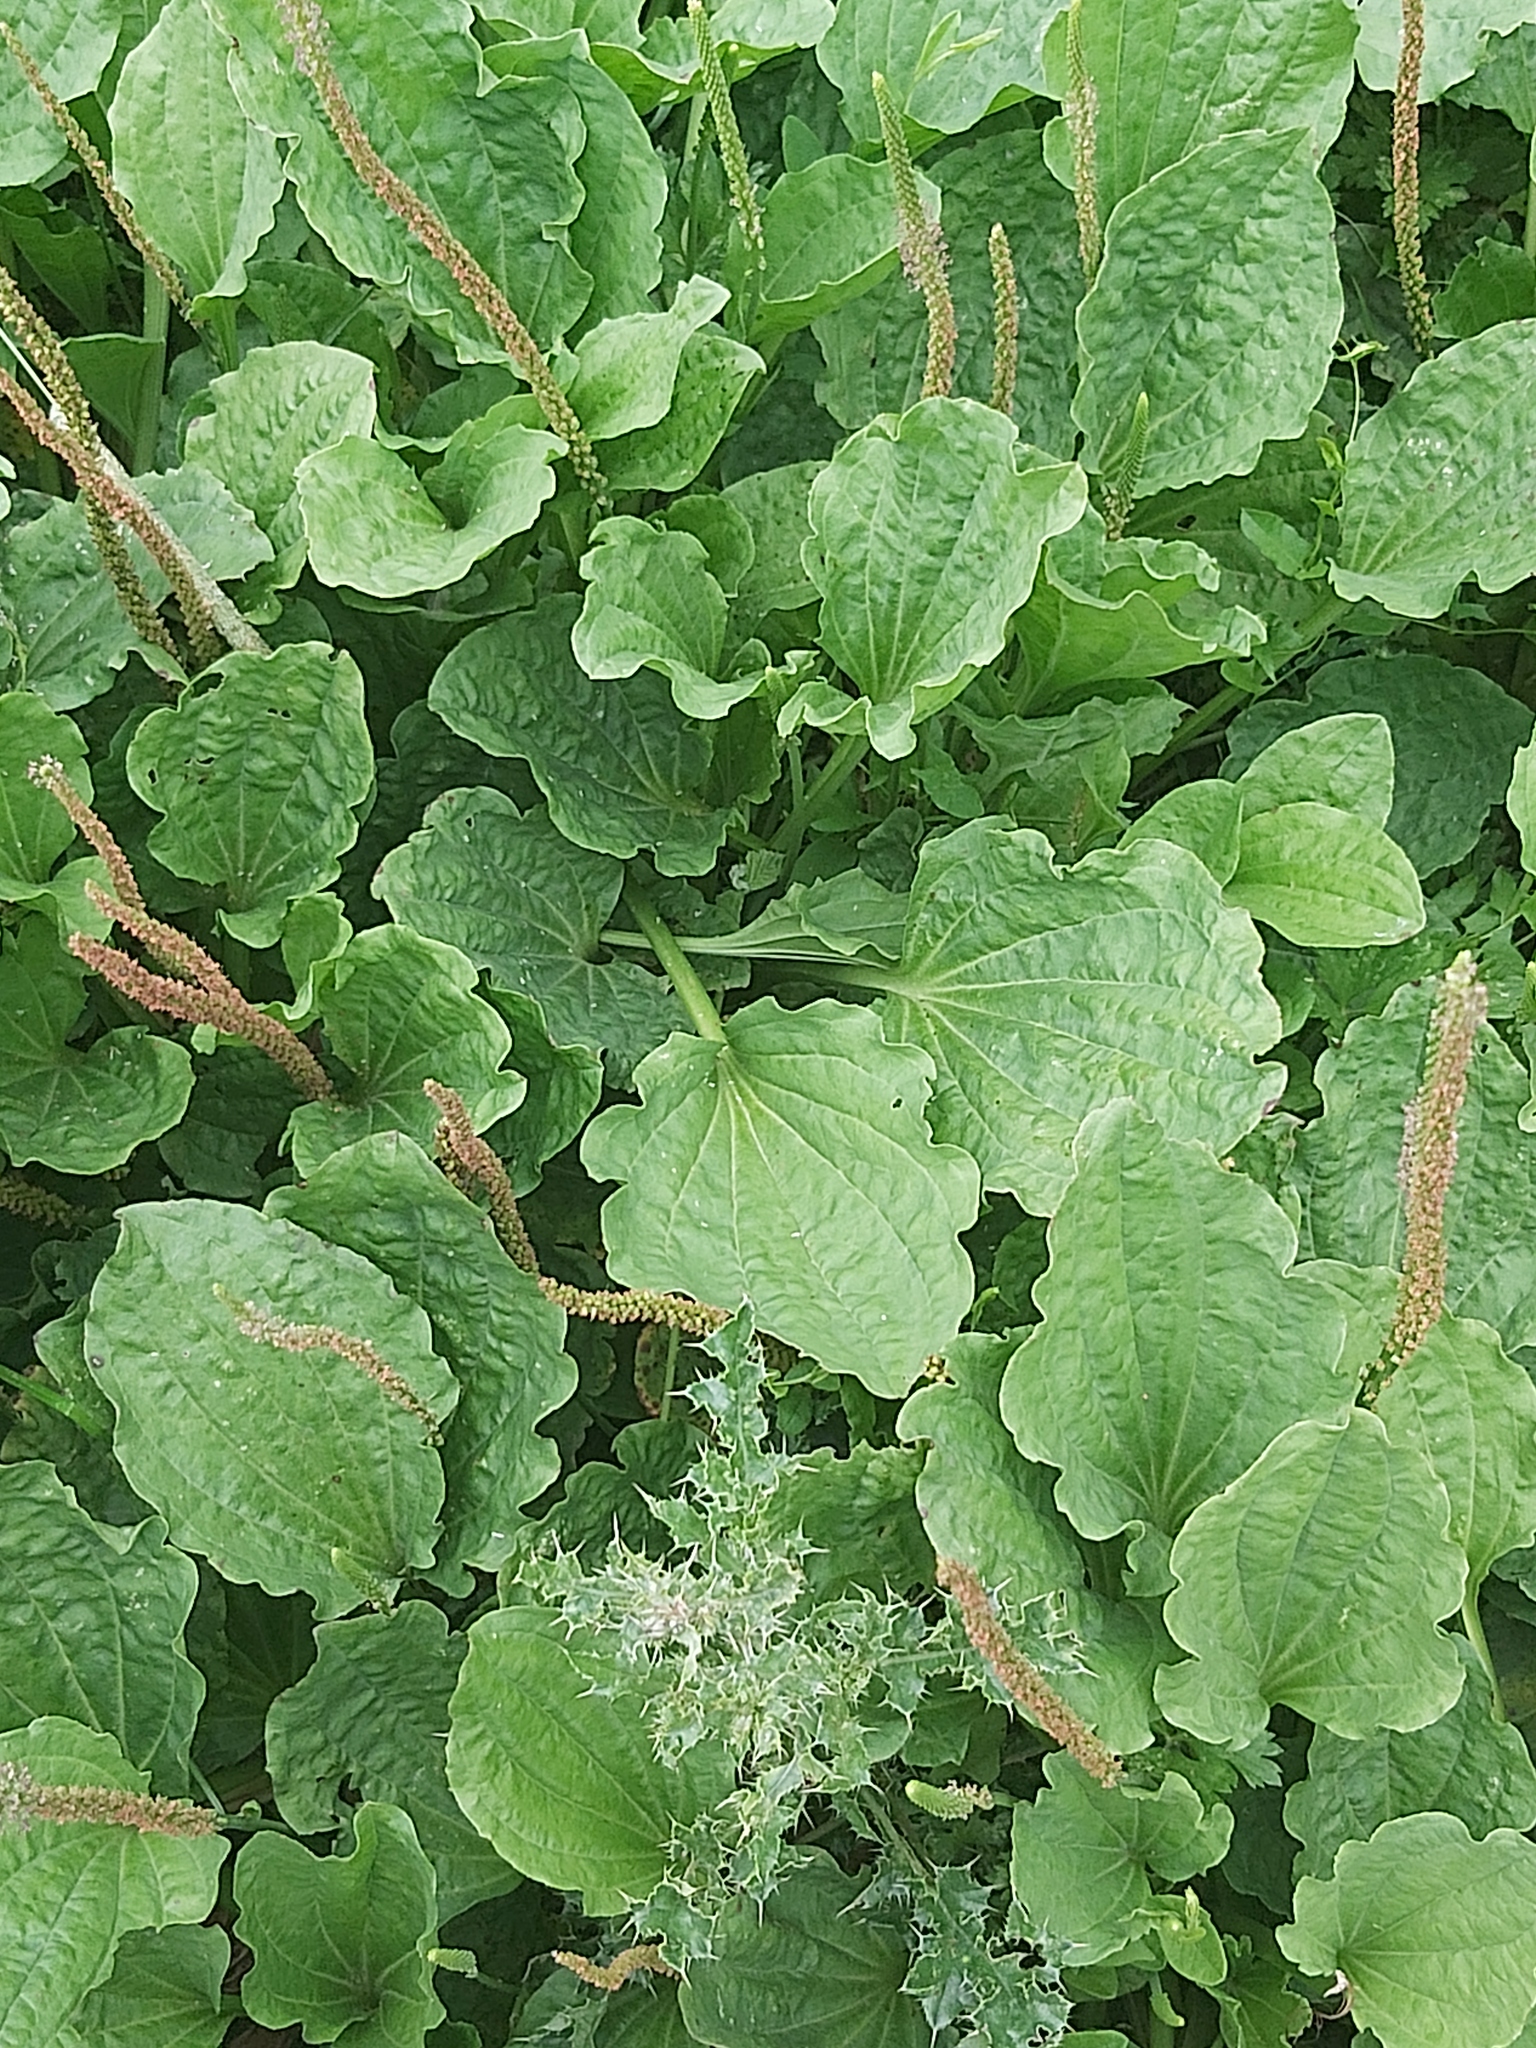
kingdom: Plantae
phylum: Tracheophyta
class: Magnoliopsida
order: Lamiales
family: Plantaginaceae
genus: Plantago
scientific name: Plantago major
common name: Common plantain
